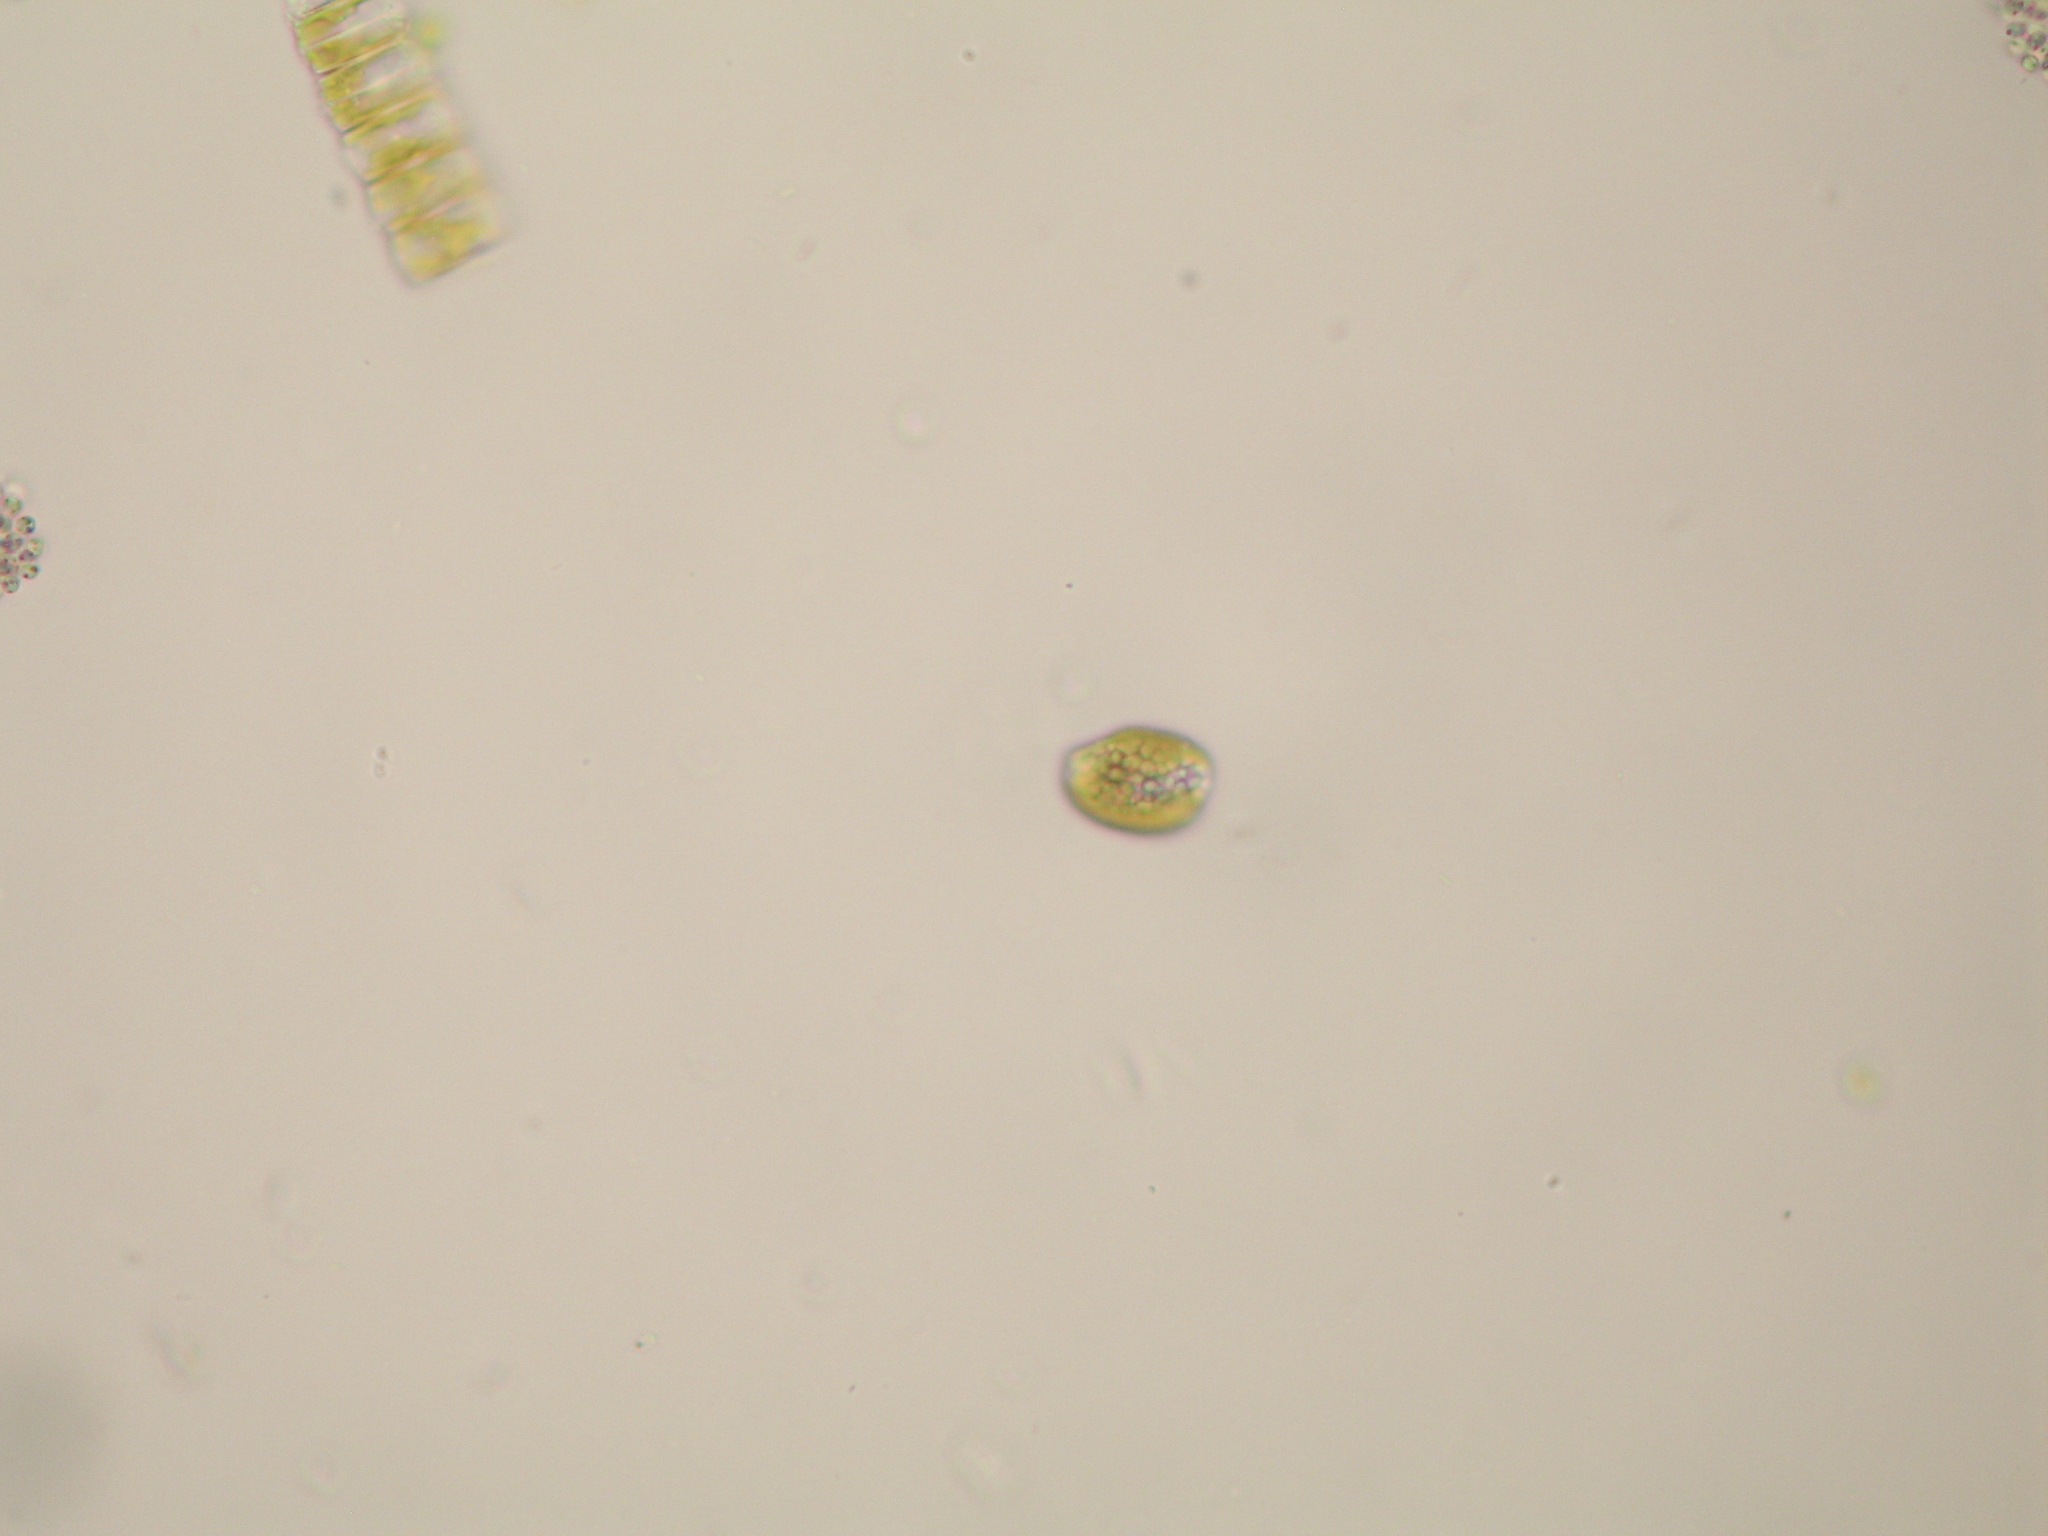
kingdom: Chromista
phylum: Cryptophyta
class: Cryptophyceae
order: Cryptomonadales
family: Cryptomonadaceae
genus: Cryptomonas
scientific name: Cryptomonas
